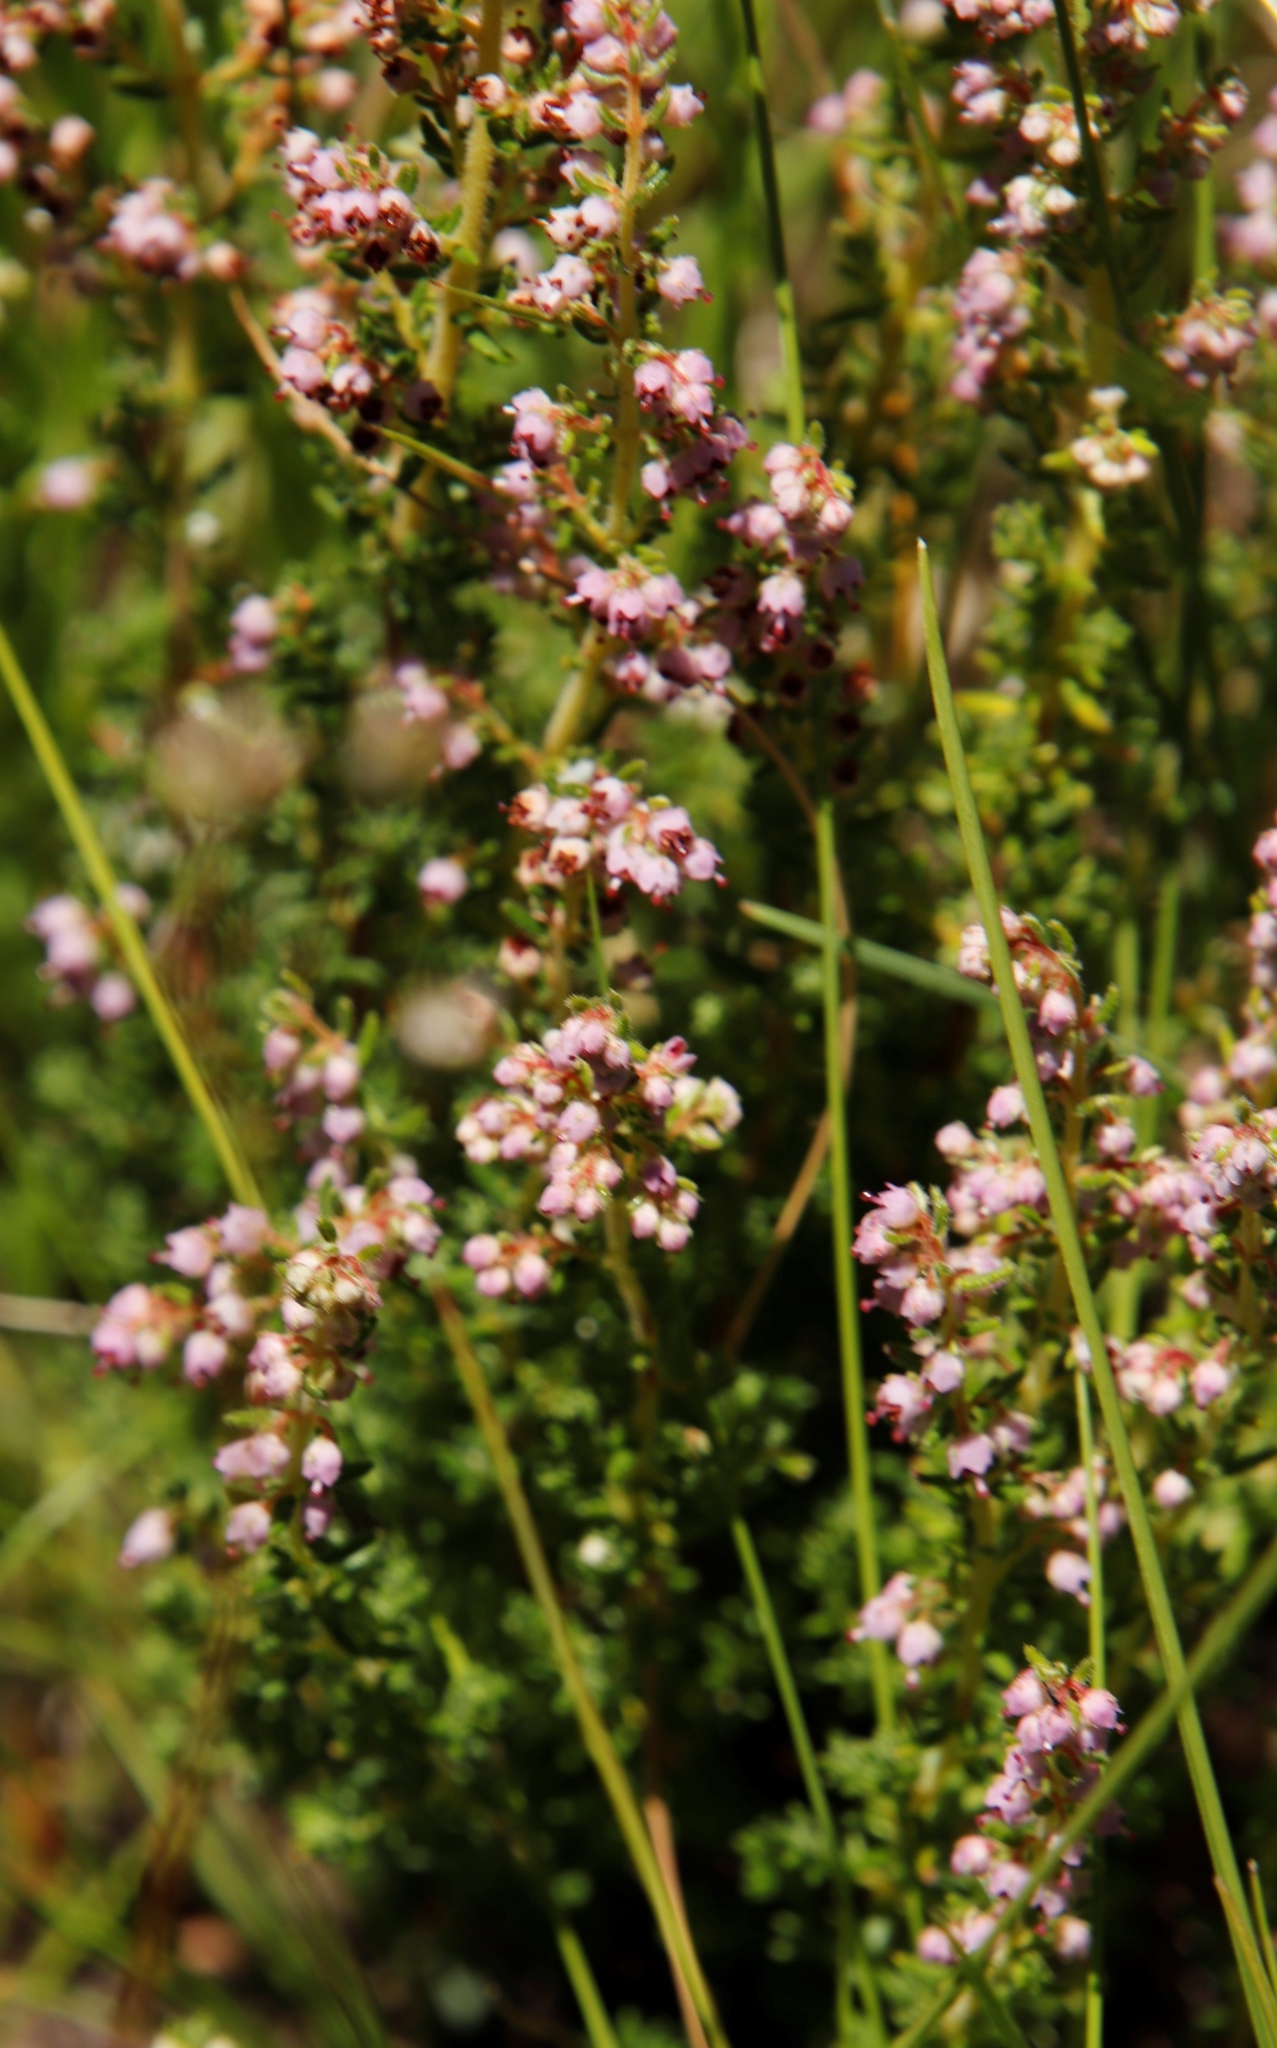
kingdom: Plantae
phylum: Tracheophyta
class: Magnoliopsida
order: Ericales
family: Ericaceae
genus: Erica
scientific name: Erica woodii
